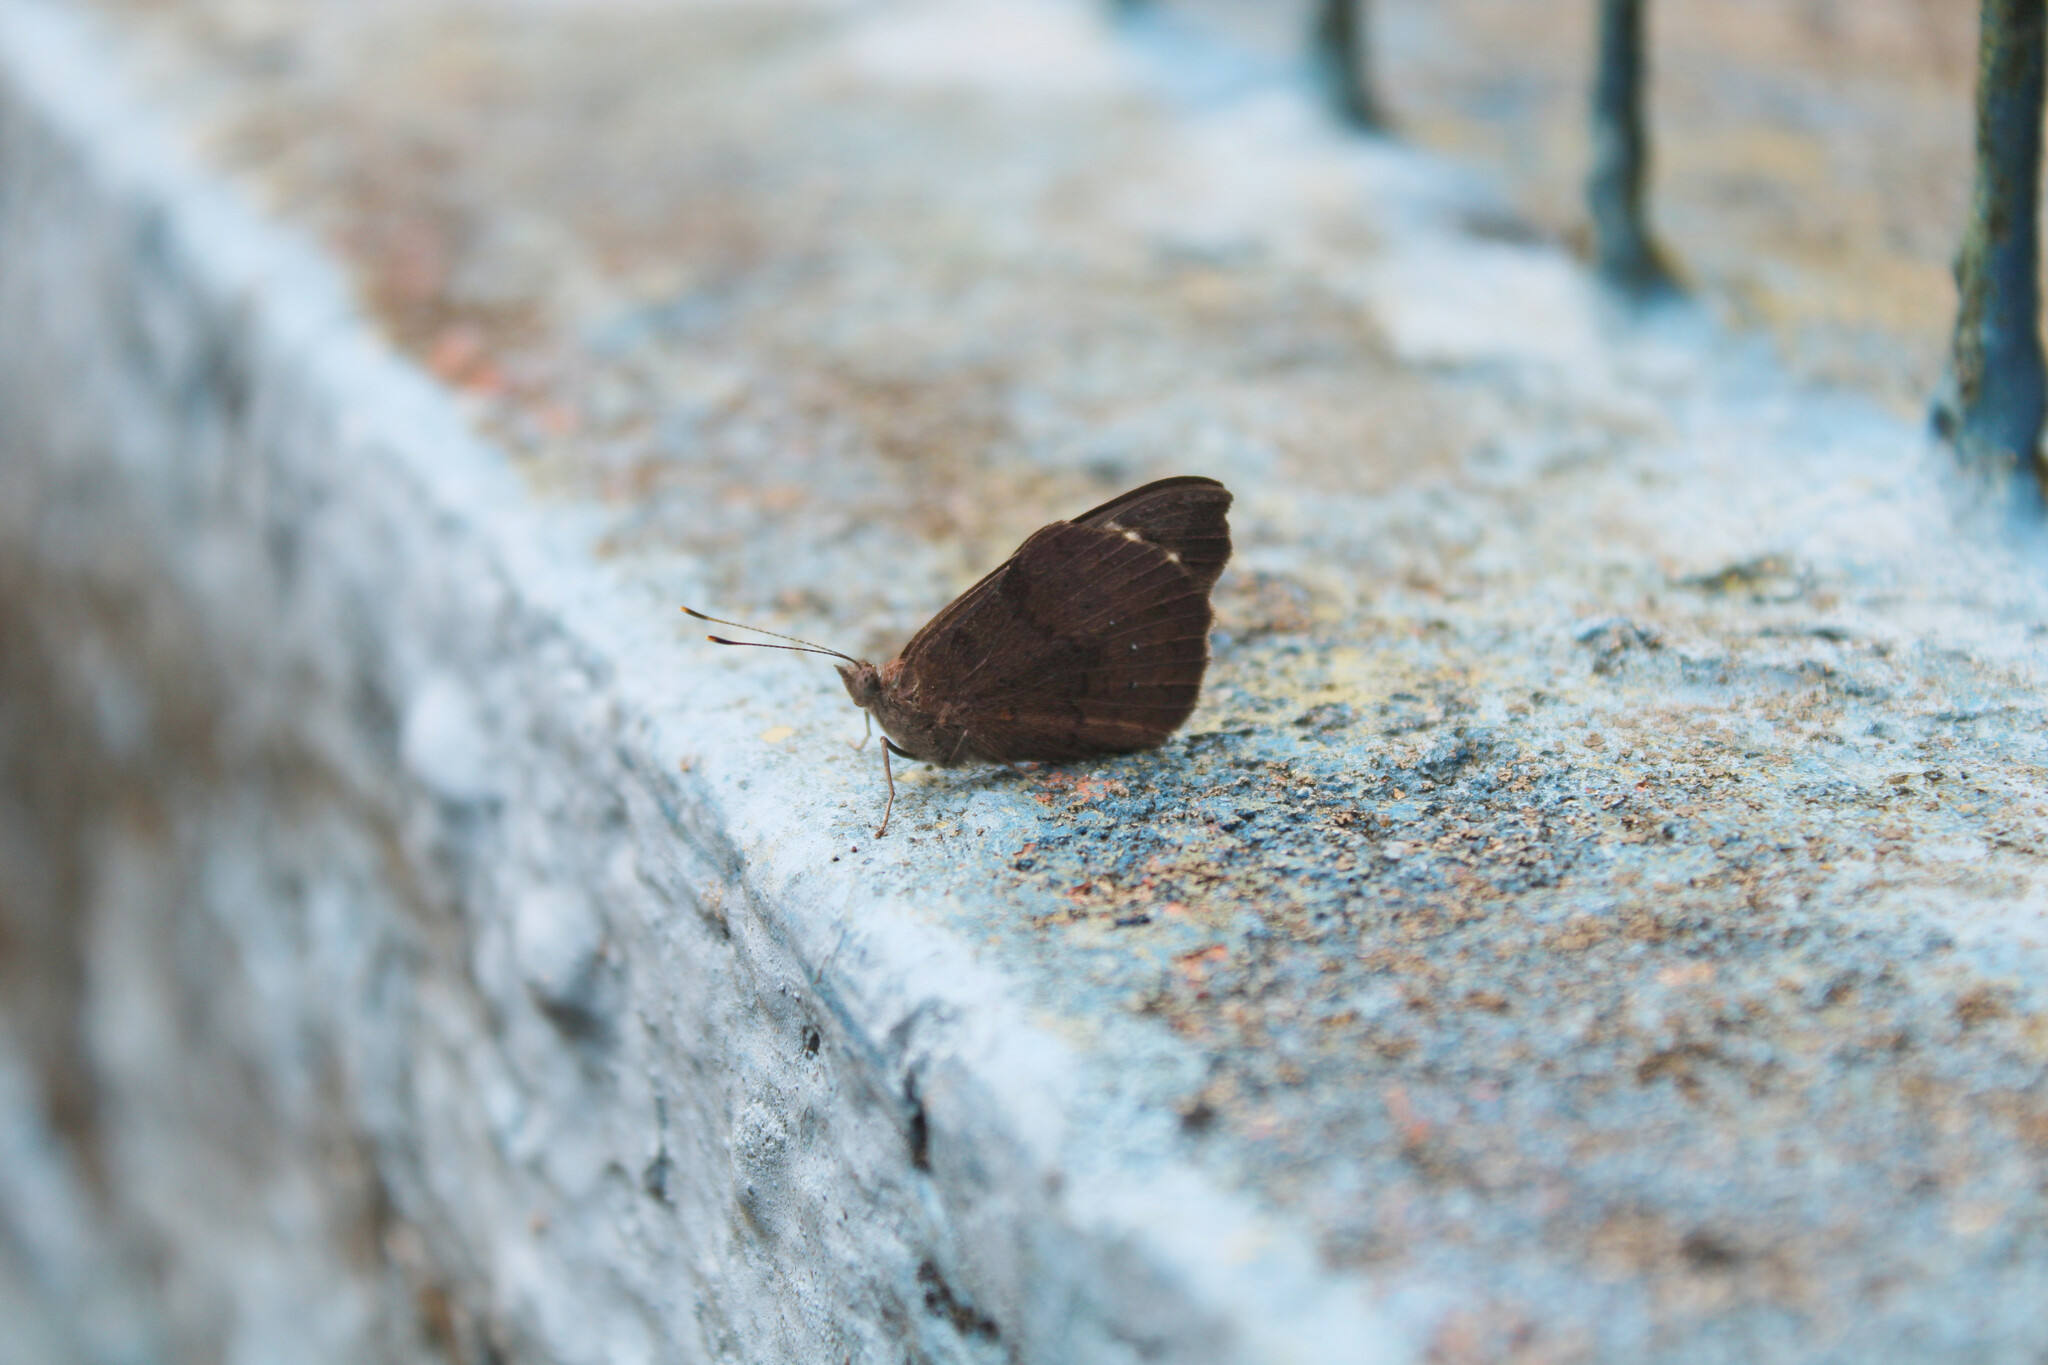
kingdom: Animalia
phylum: Arthropoda
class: Insecta
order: Lepidoptera
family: Nymphalidae
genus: Eunica
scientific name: Eunica tatila
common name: Florida purplewing
